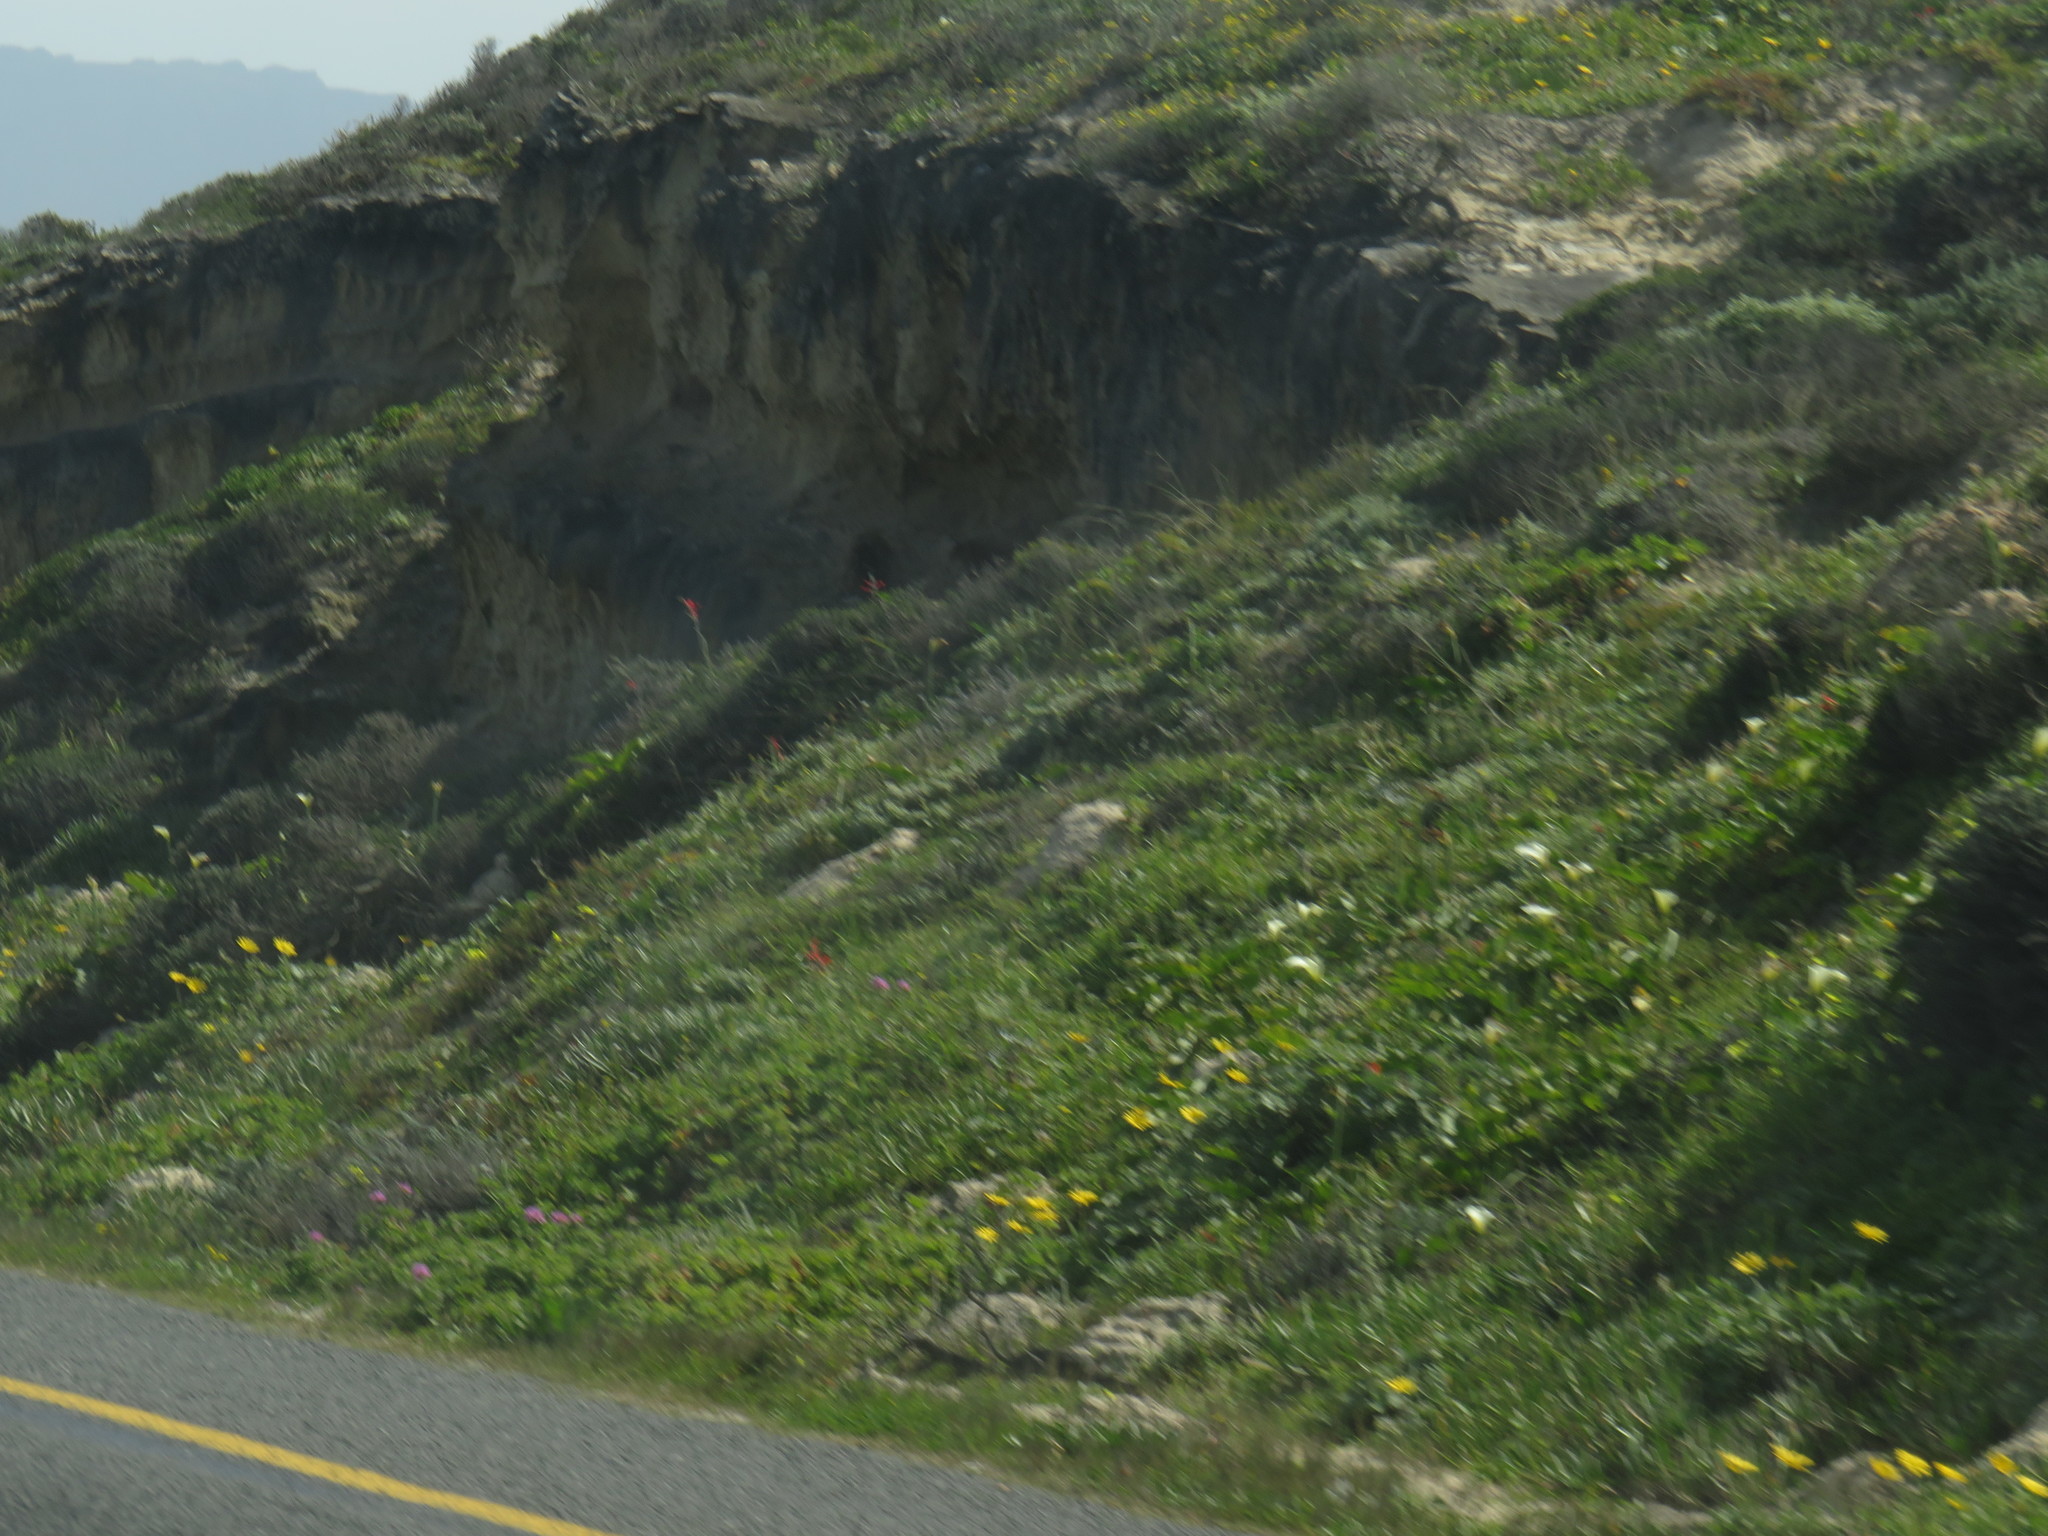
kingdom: Plantae
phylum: Tracheophyta
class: Liliopsida
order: Asparagales
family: Iridaceae
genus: Gladiolus
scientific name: Gladiolus cunonius
